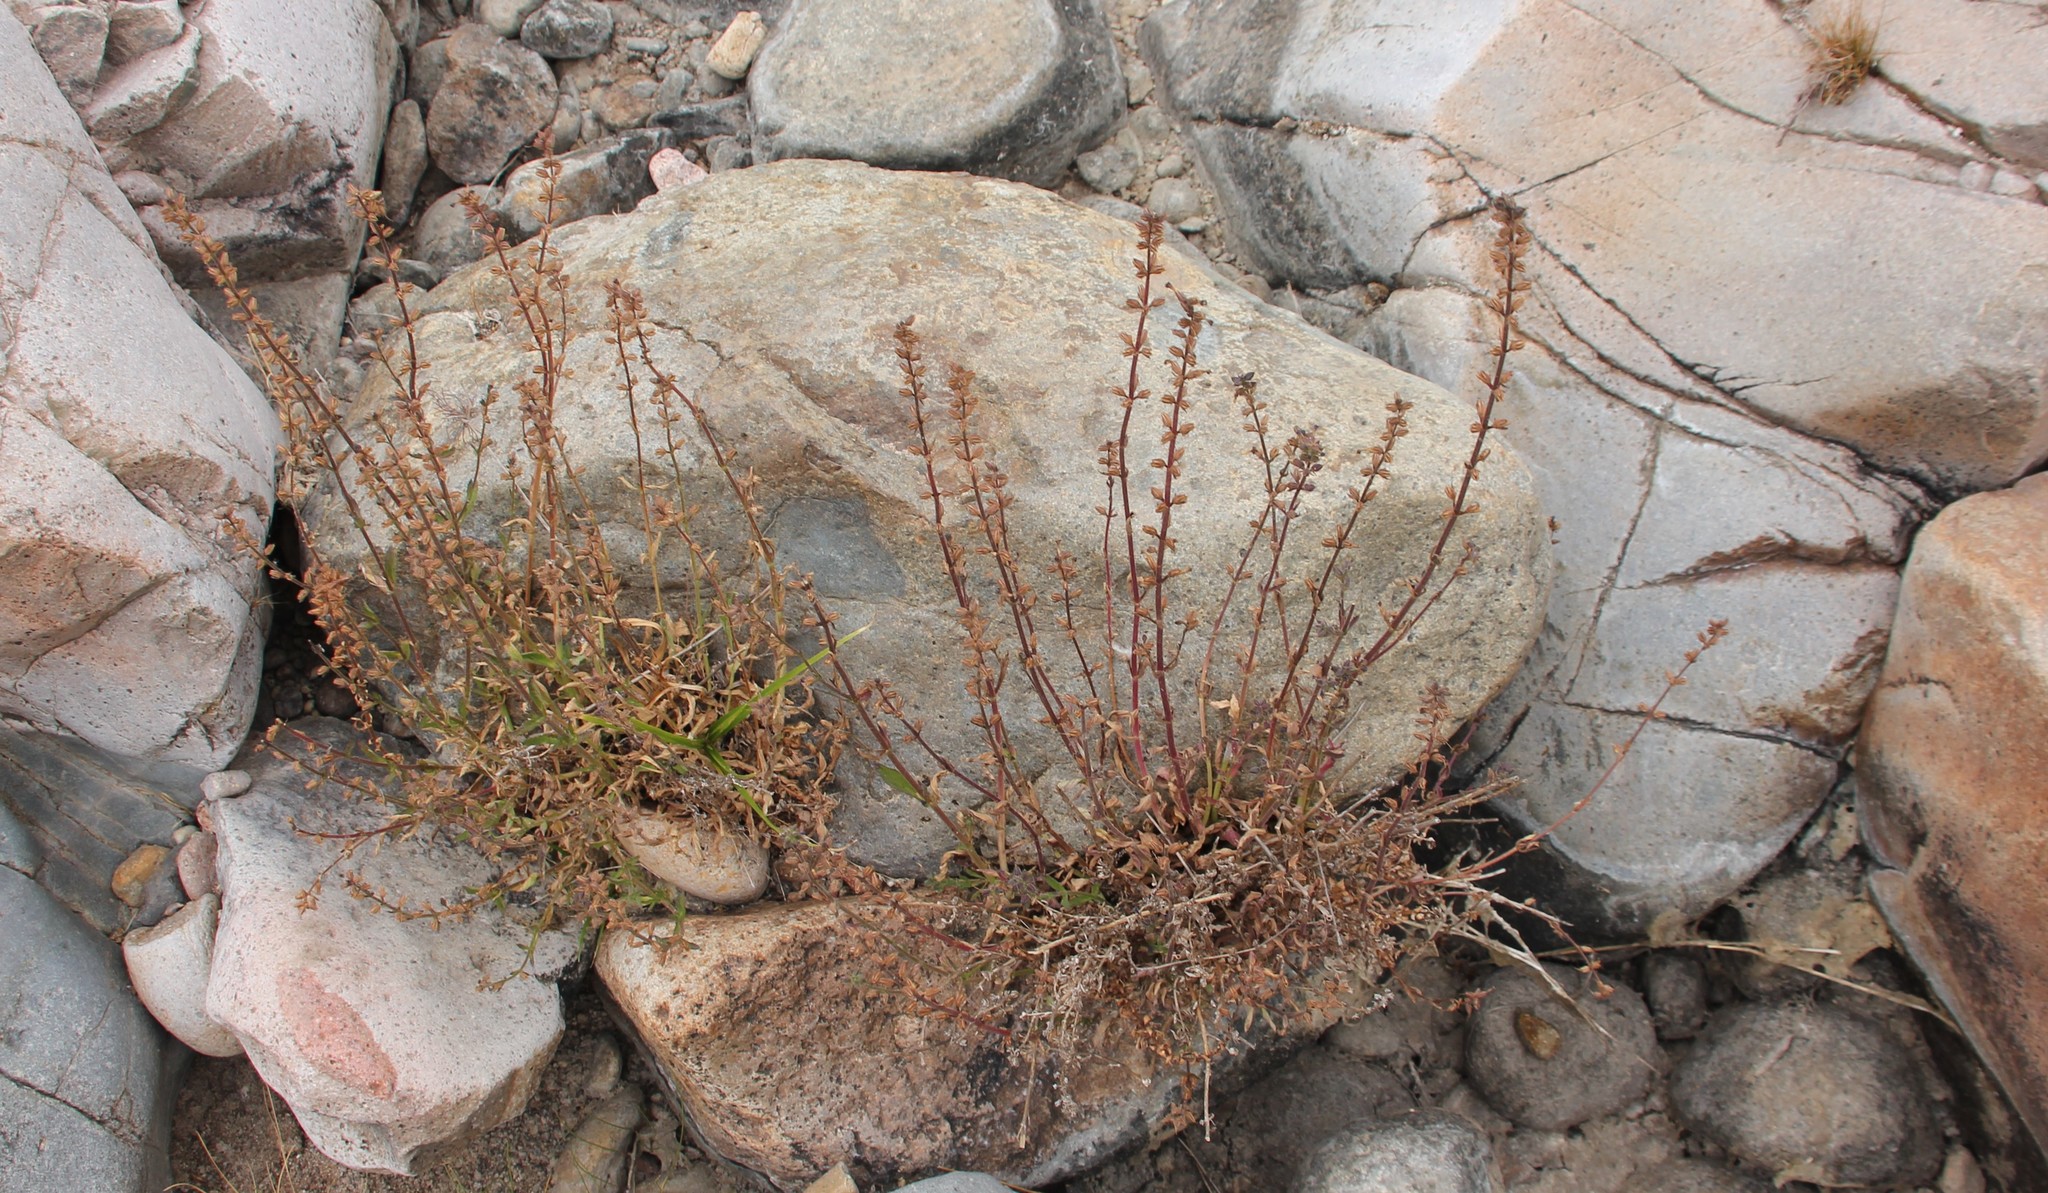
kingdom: Plantae
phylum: Tracheophyta
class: Magnoliopsida
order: Lamiales
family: Plantaginaceae
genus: Stemodia
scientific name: Stemodia durantifolia
